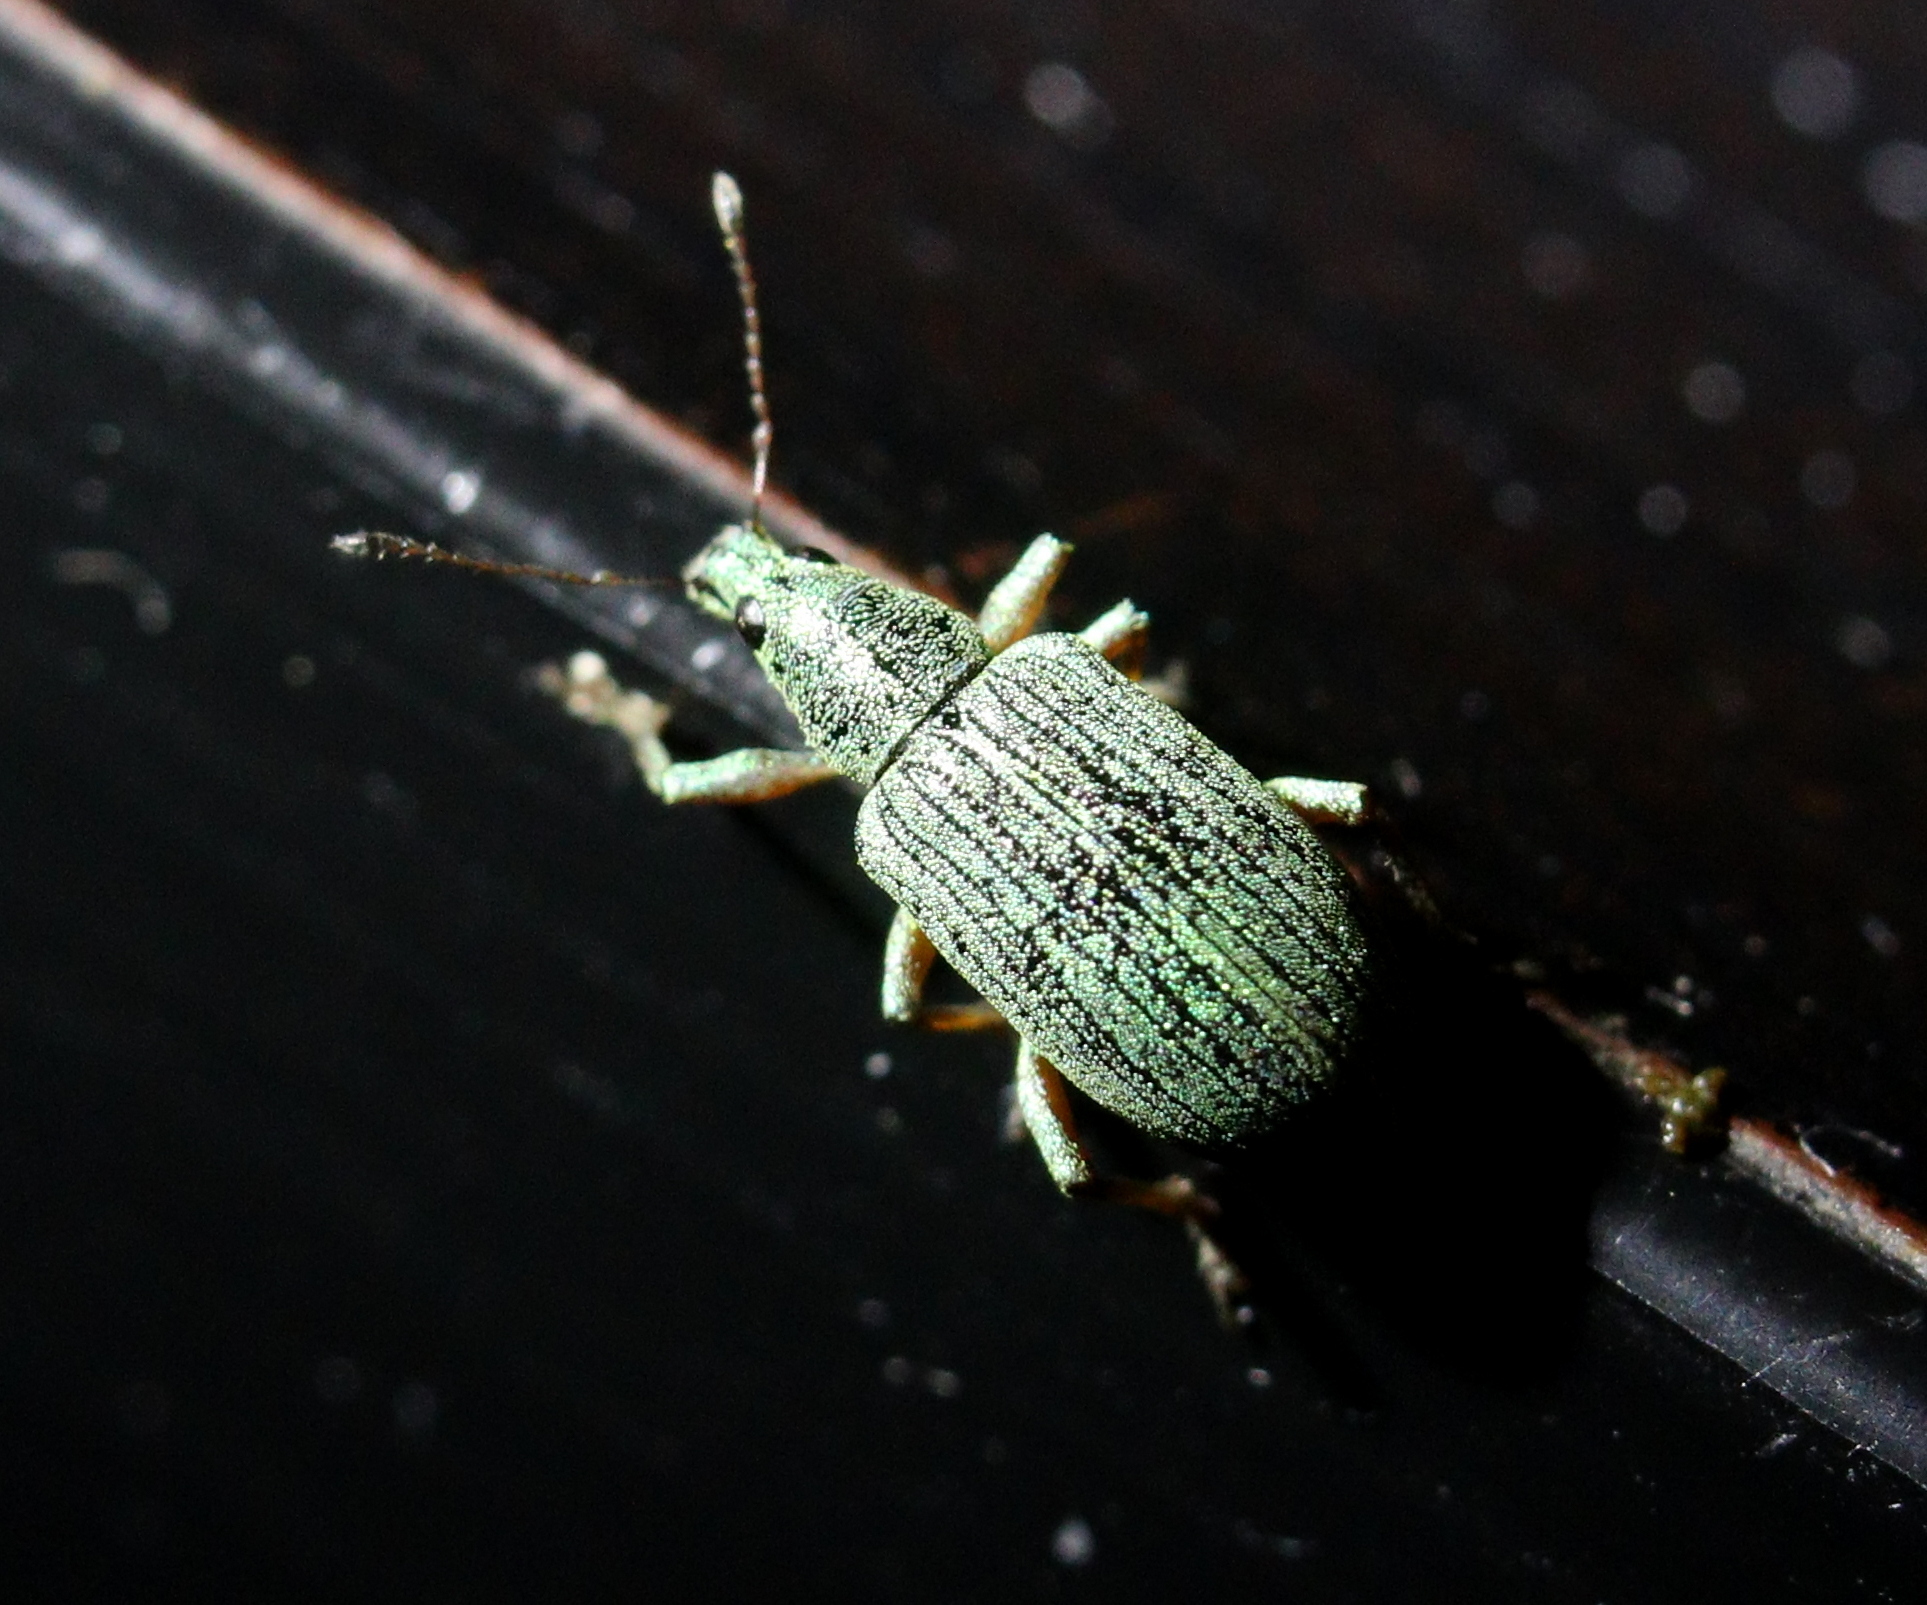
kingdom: Animalia
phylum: Arthropoda
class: Insecta
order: Coleoptera
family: Curculionidae
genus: Polydrusus
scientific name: Polydrusus formosus
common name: Weevil
